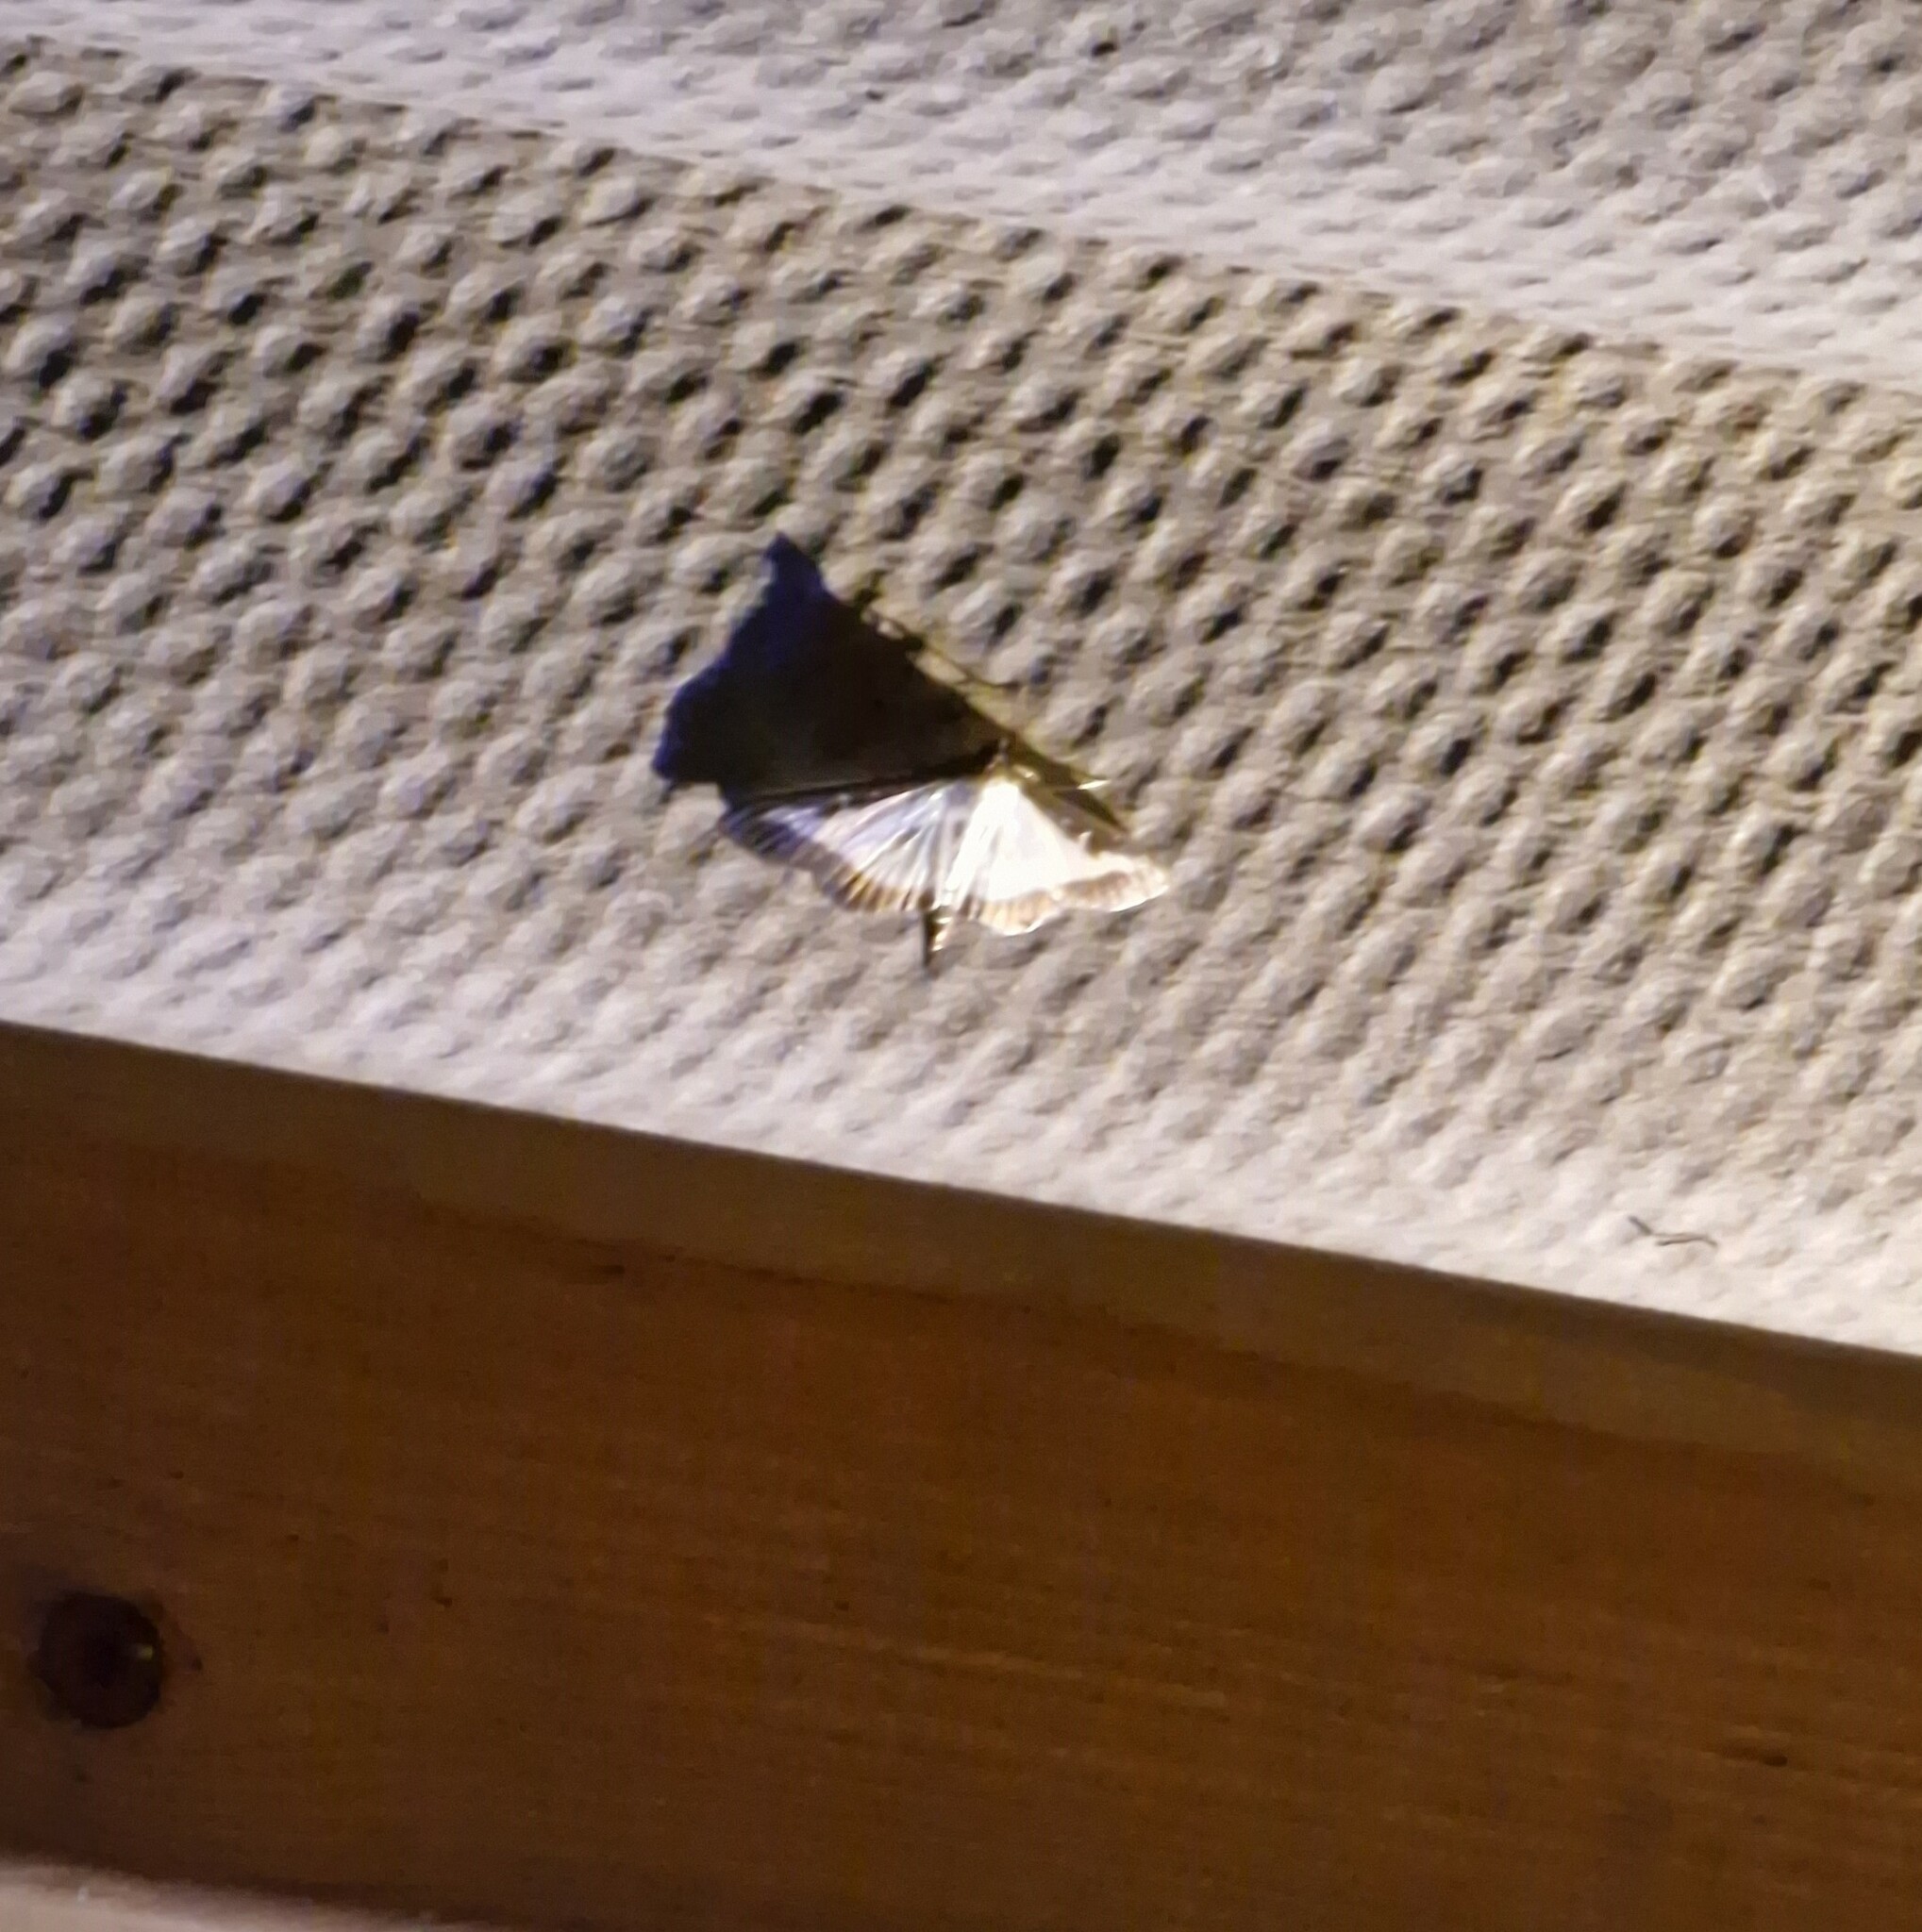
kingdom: Animalia
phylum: Arthropoda
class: Insecta
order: Lepidoptera
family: Crambidae
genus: Cydalima
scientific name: Cydalima perspectalis
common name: Box tree moth
